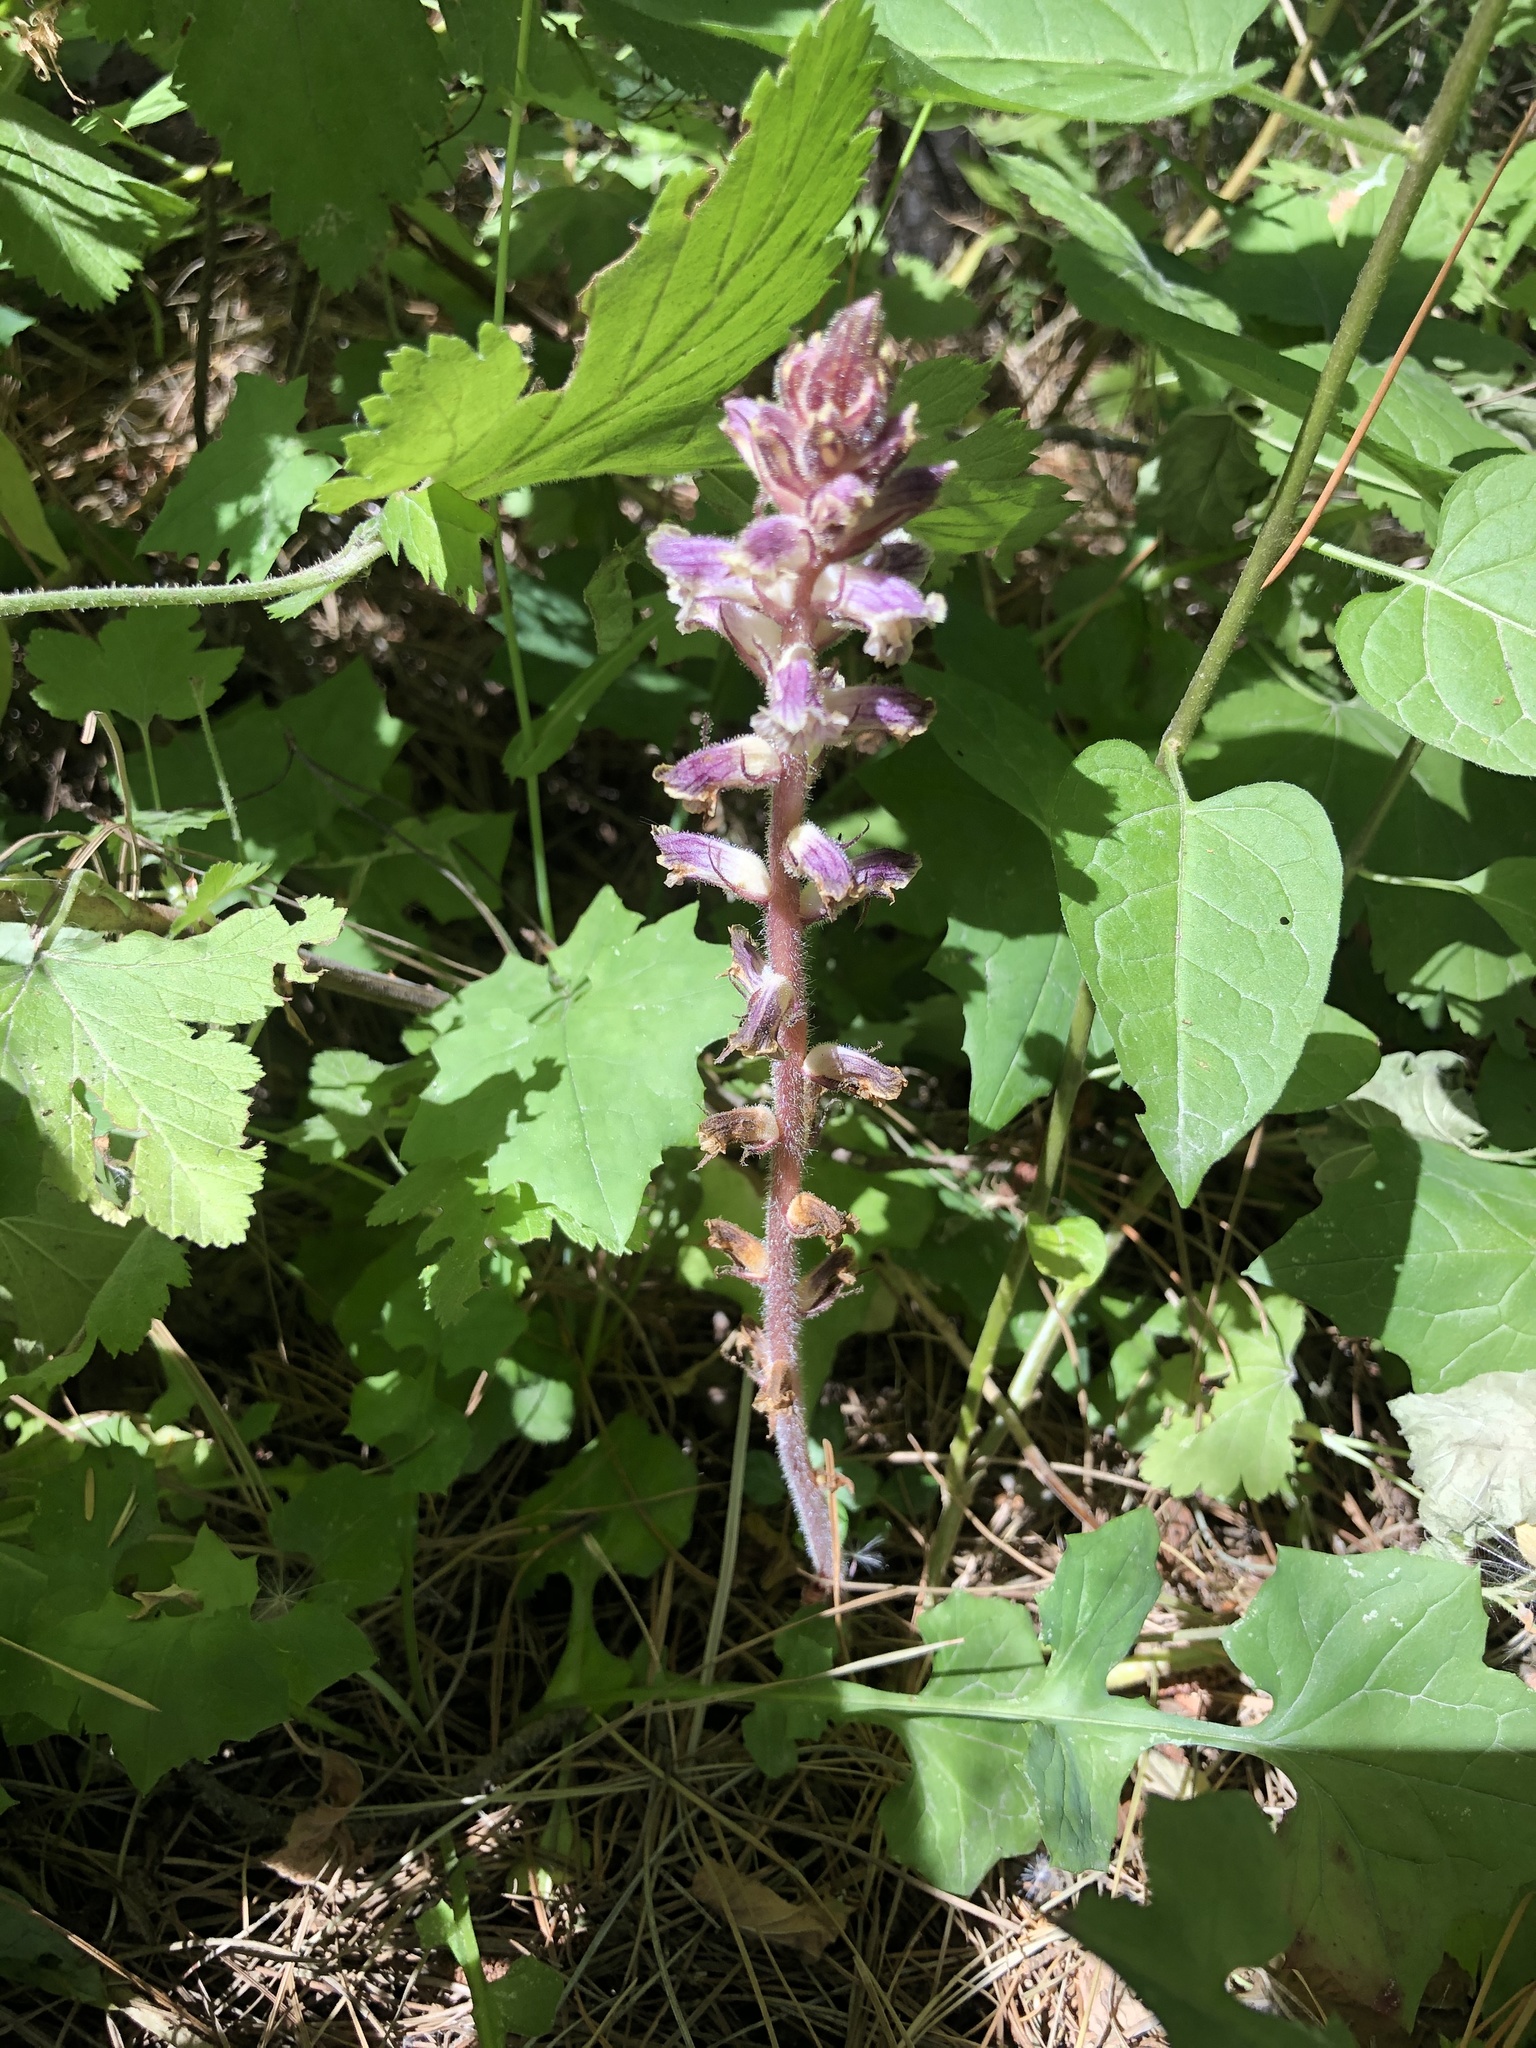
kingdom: Plantae
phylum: Tracheophyta
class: Magnoliopsida
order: Lamiales
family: Orobanchaceae
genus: Orobanche
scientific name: Orobanche minor
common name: Common broomrape
